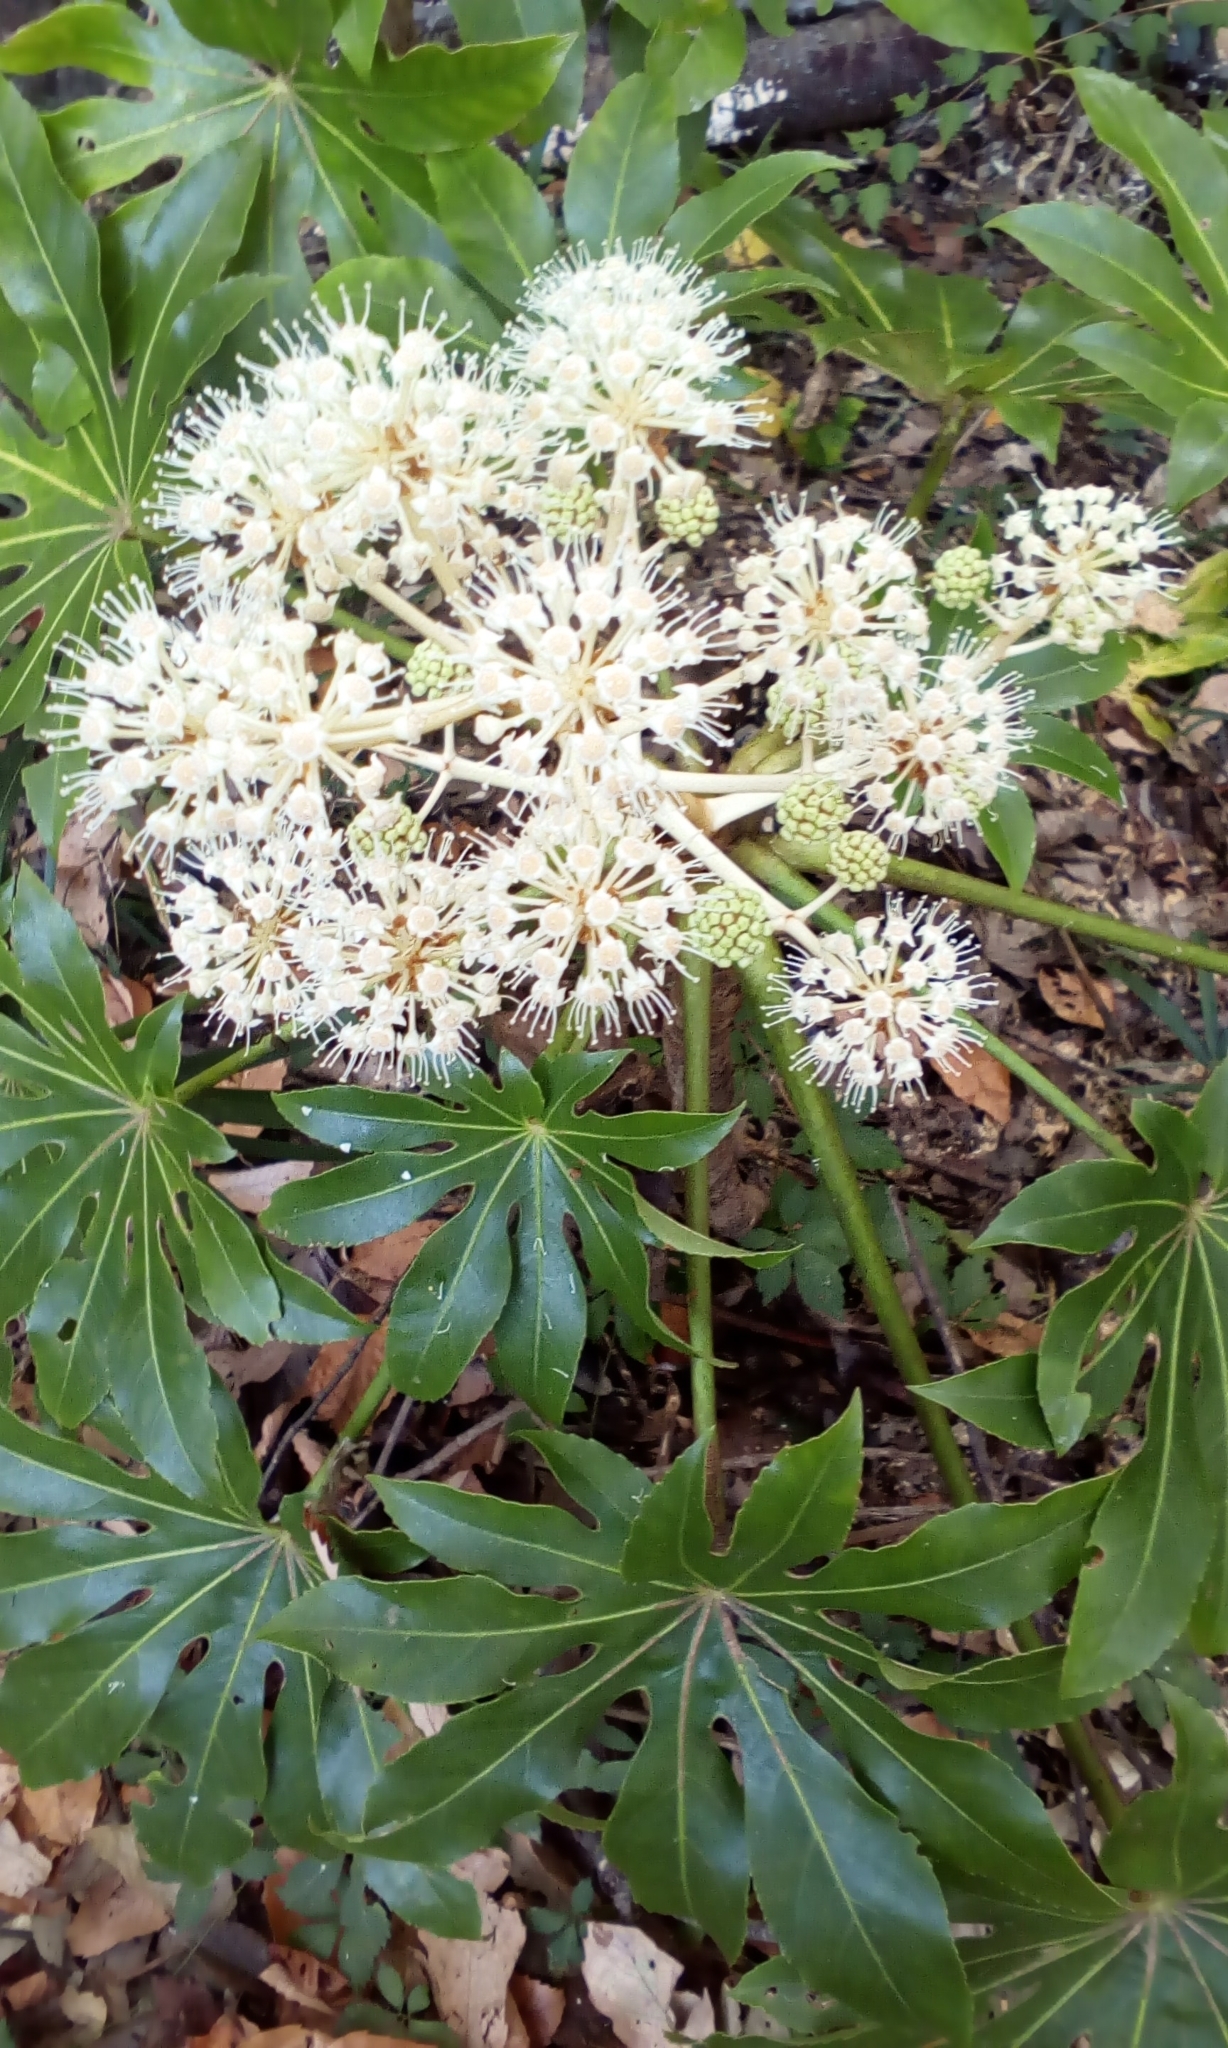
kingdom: Plantae
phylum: Tracheophyta
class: Magnoliopsida
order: Apiales
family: Araliaceae
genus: Fatsia
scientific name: Fatsia japonica
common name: Fatsia
